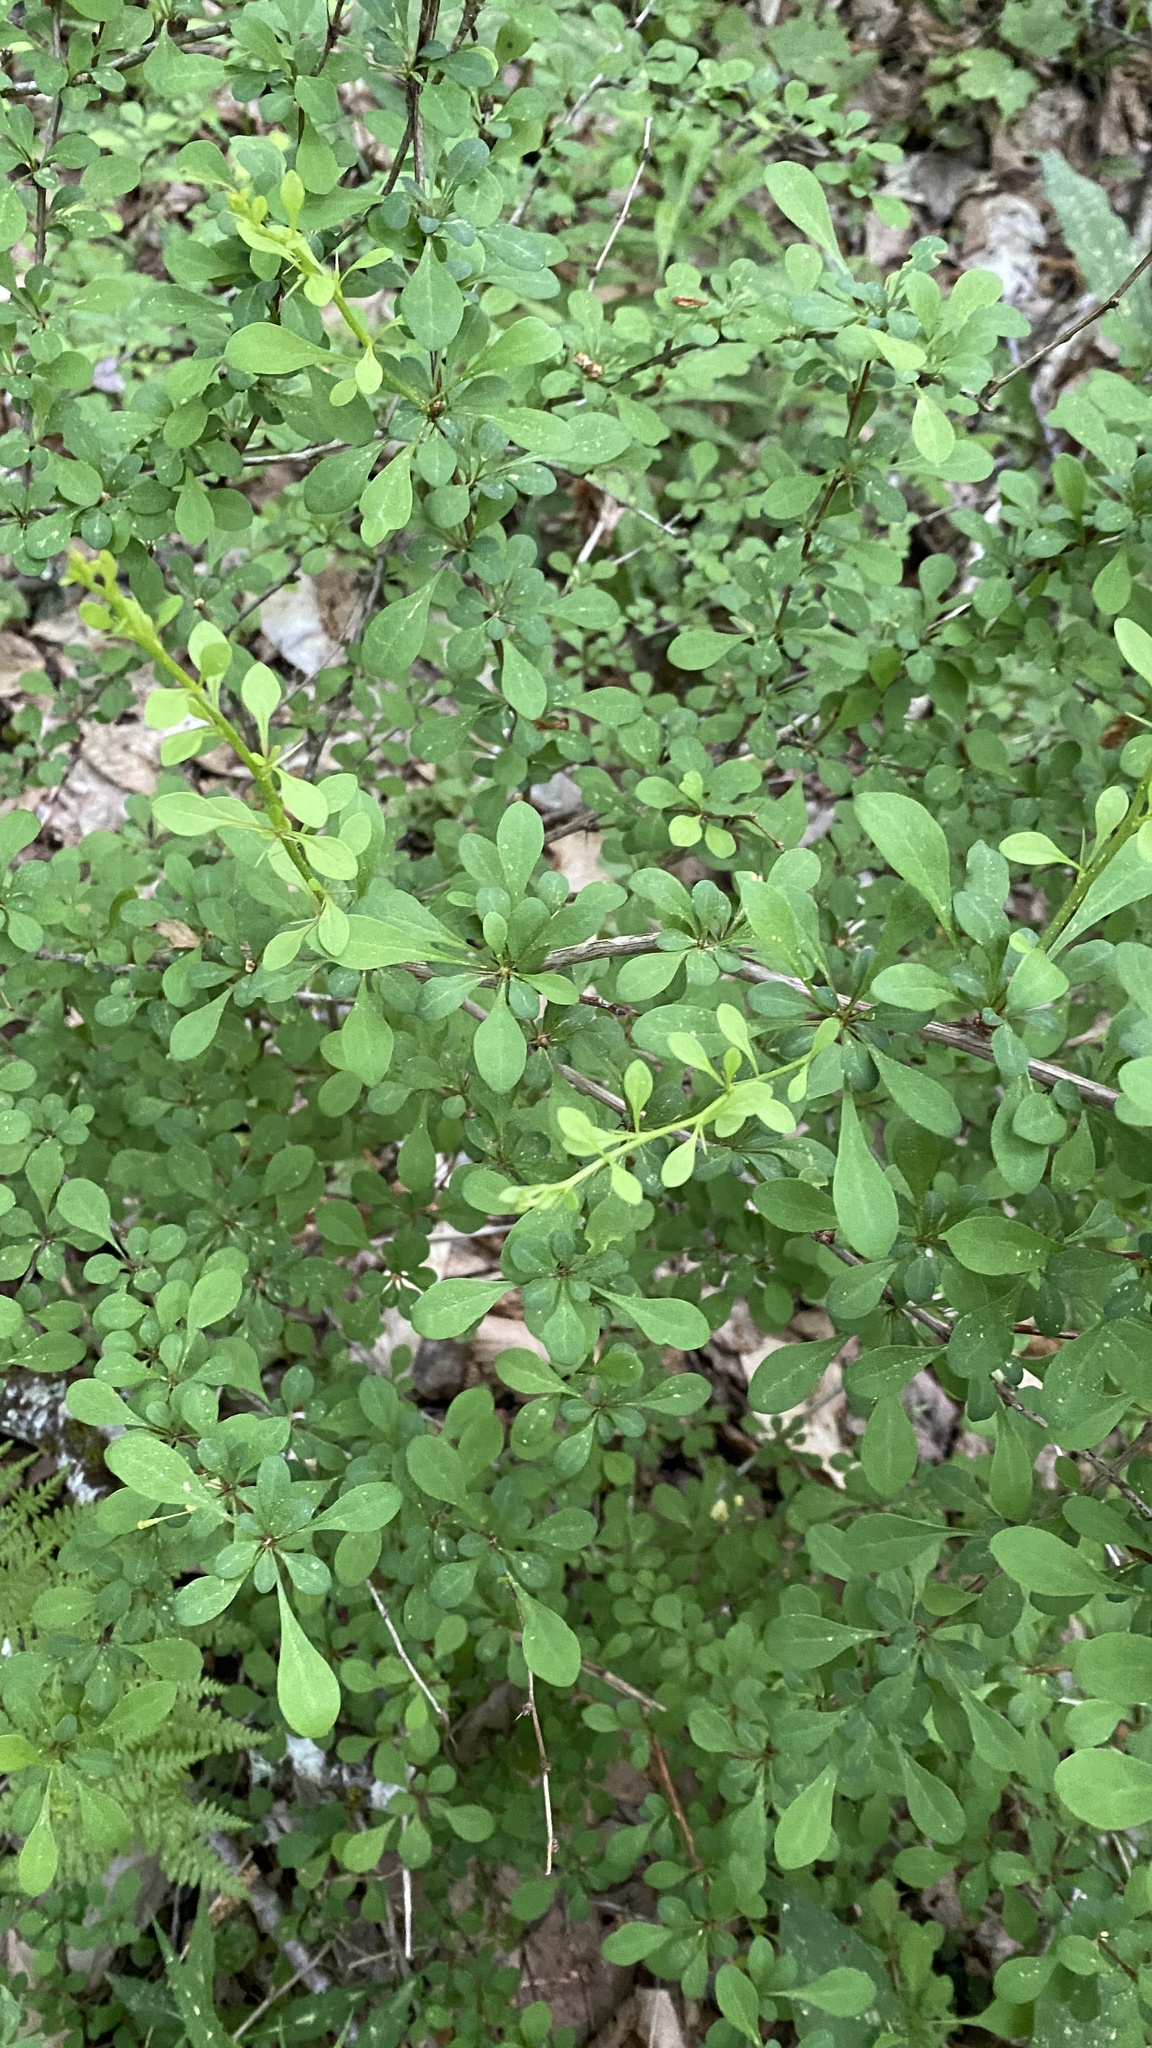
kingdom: Plantae
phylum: Tracheophyta
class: Magnoliopsida
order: Ranunculales
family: Berberidaceae
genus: Berberis
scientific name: Berberis thunbergii
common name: Japanese barberry
